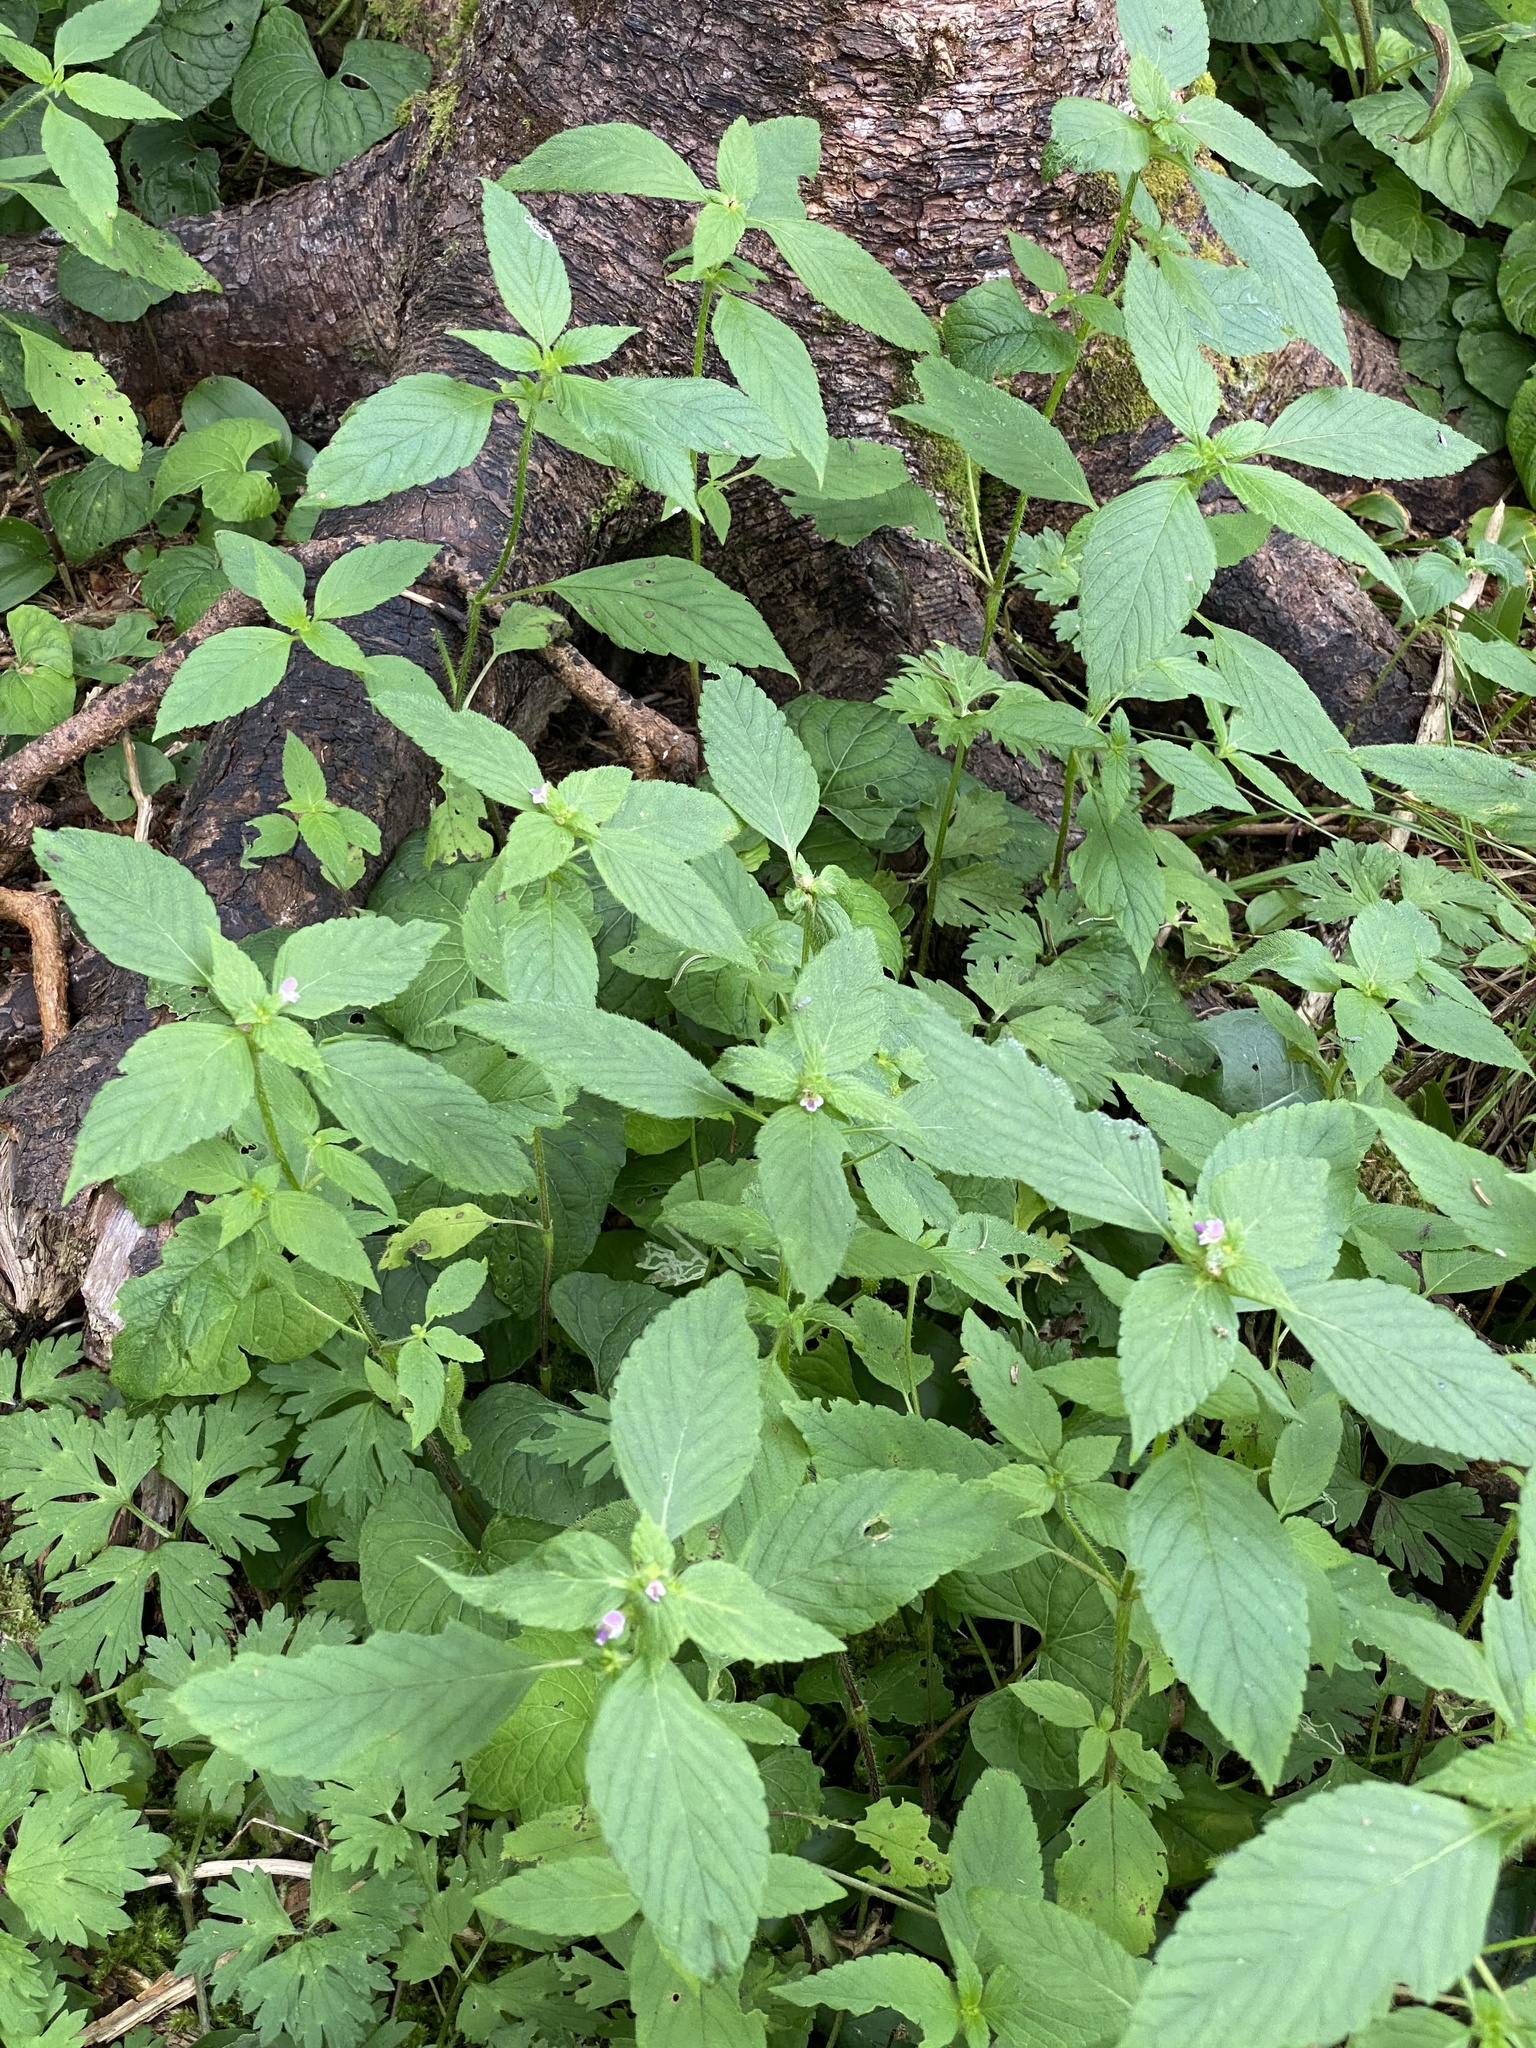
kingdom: Plantae
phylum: Tracheophyta
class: Magnoliopsida
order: Lamiales
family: Lamiaceae
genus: Galeopsis
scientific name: Galeopsis bifida
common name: Bifid hemp-nettle
